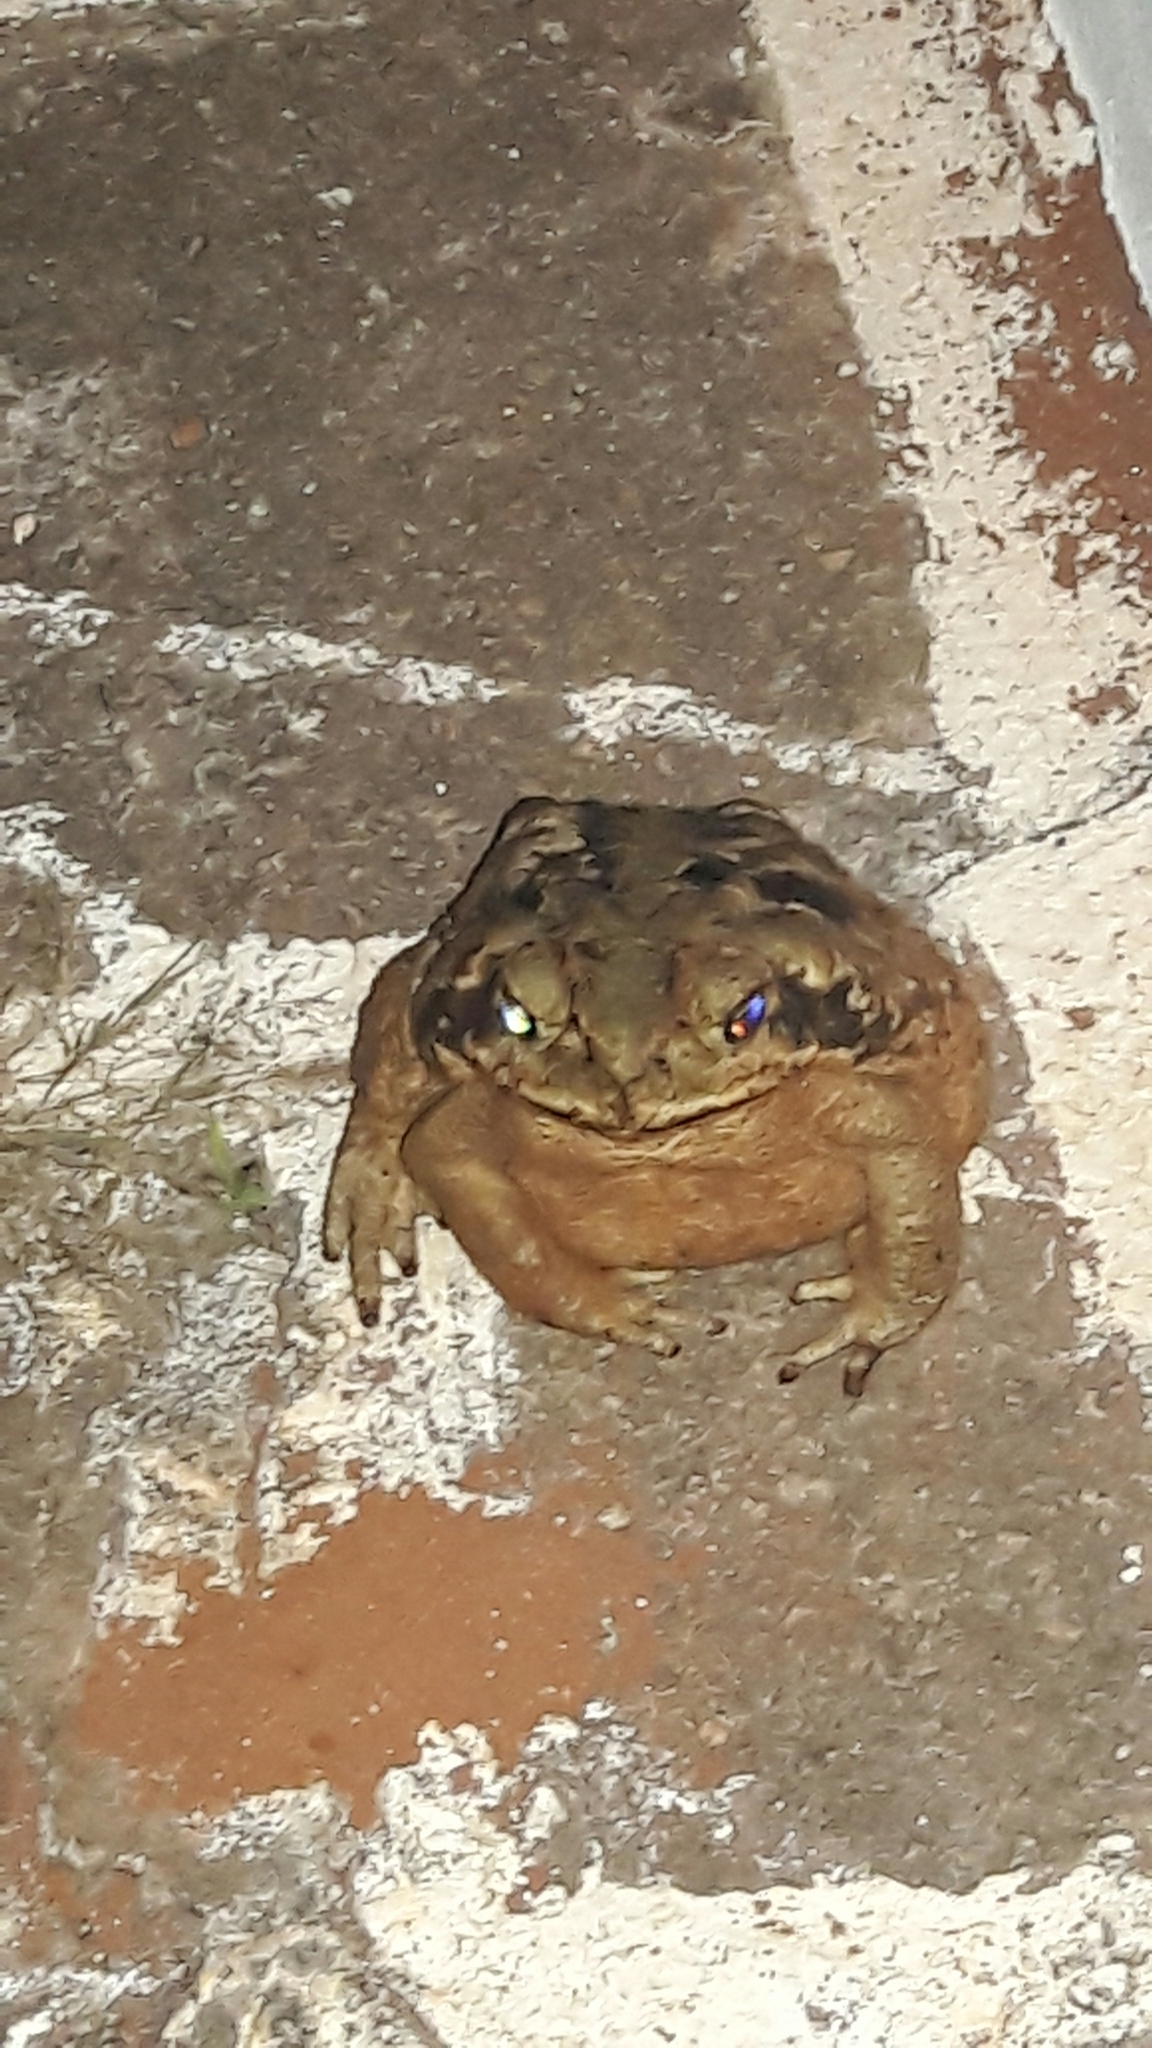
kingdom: Animalia
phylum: Chordata
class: Amphibia
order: Anura
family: Bufonidae
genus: Rhinella
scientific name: Rhinella diptycha
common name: Cope's toad
